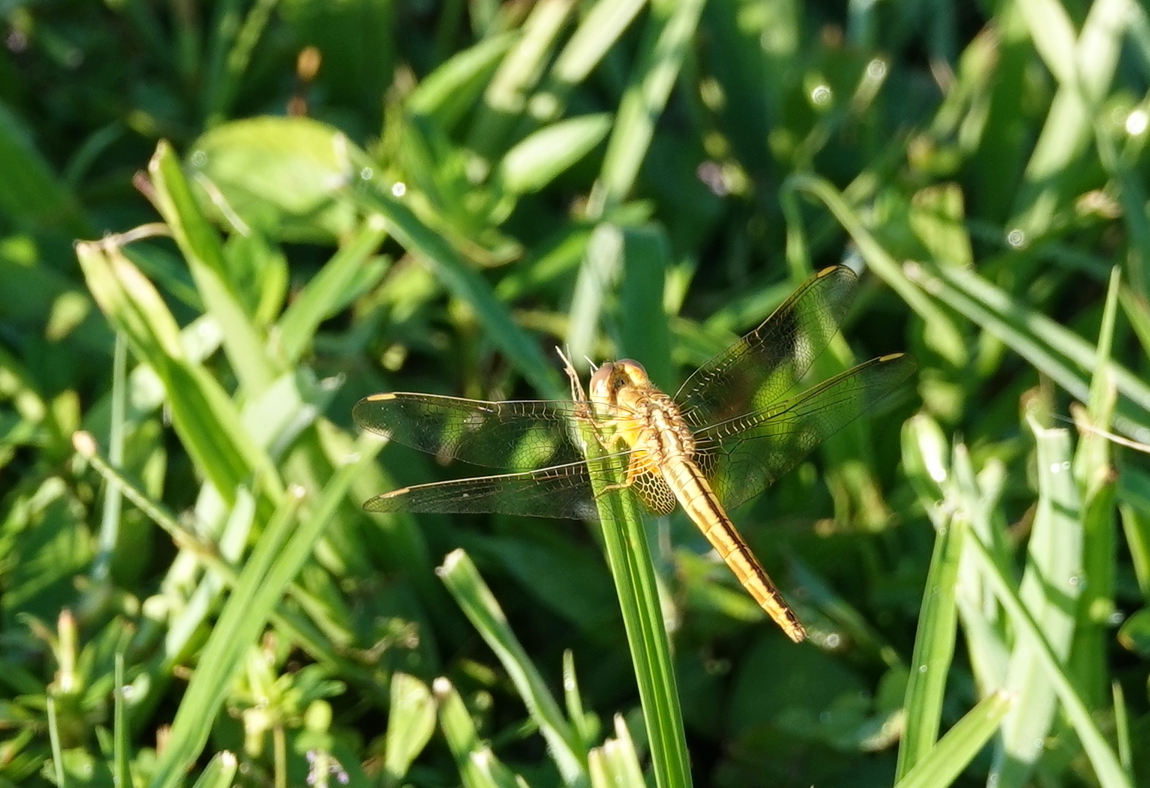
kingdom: Animalia
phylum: Arthropoda
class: Insecta
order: Odonata
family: Libellulidae
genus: Crocothemis
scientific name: Crocothemis servilia
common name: Scarlet skimmer
